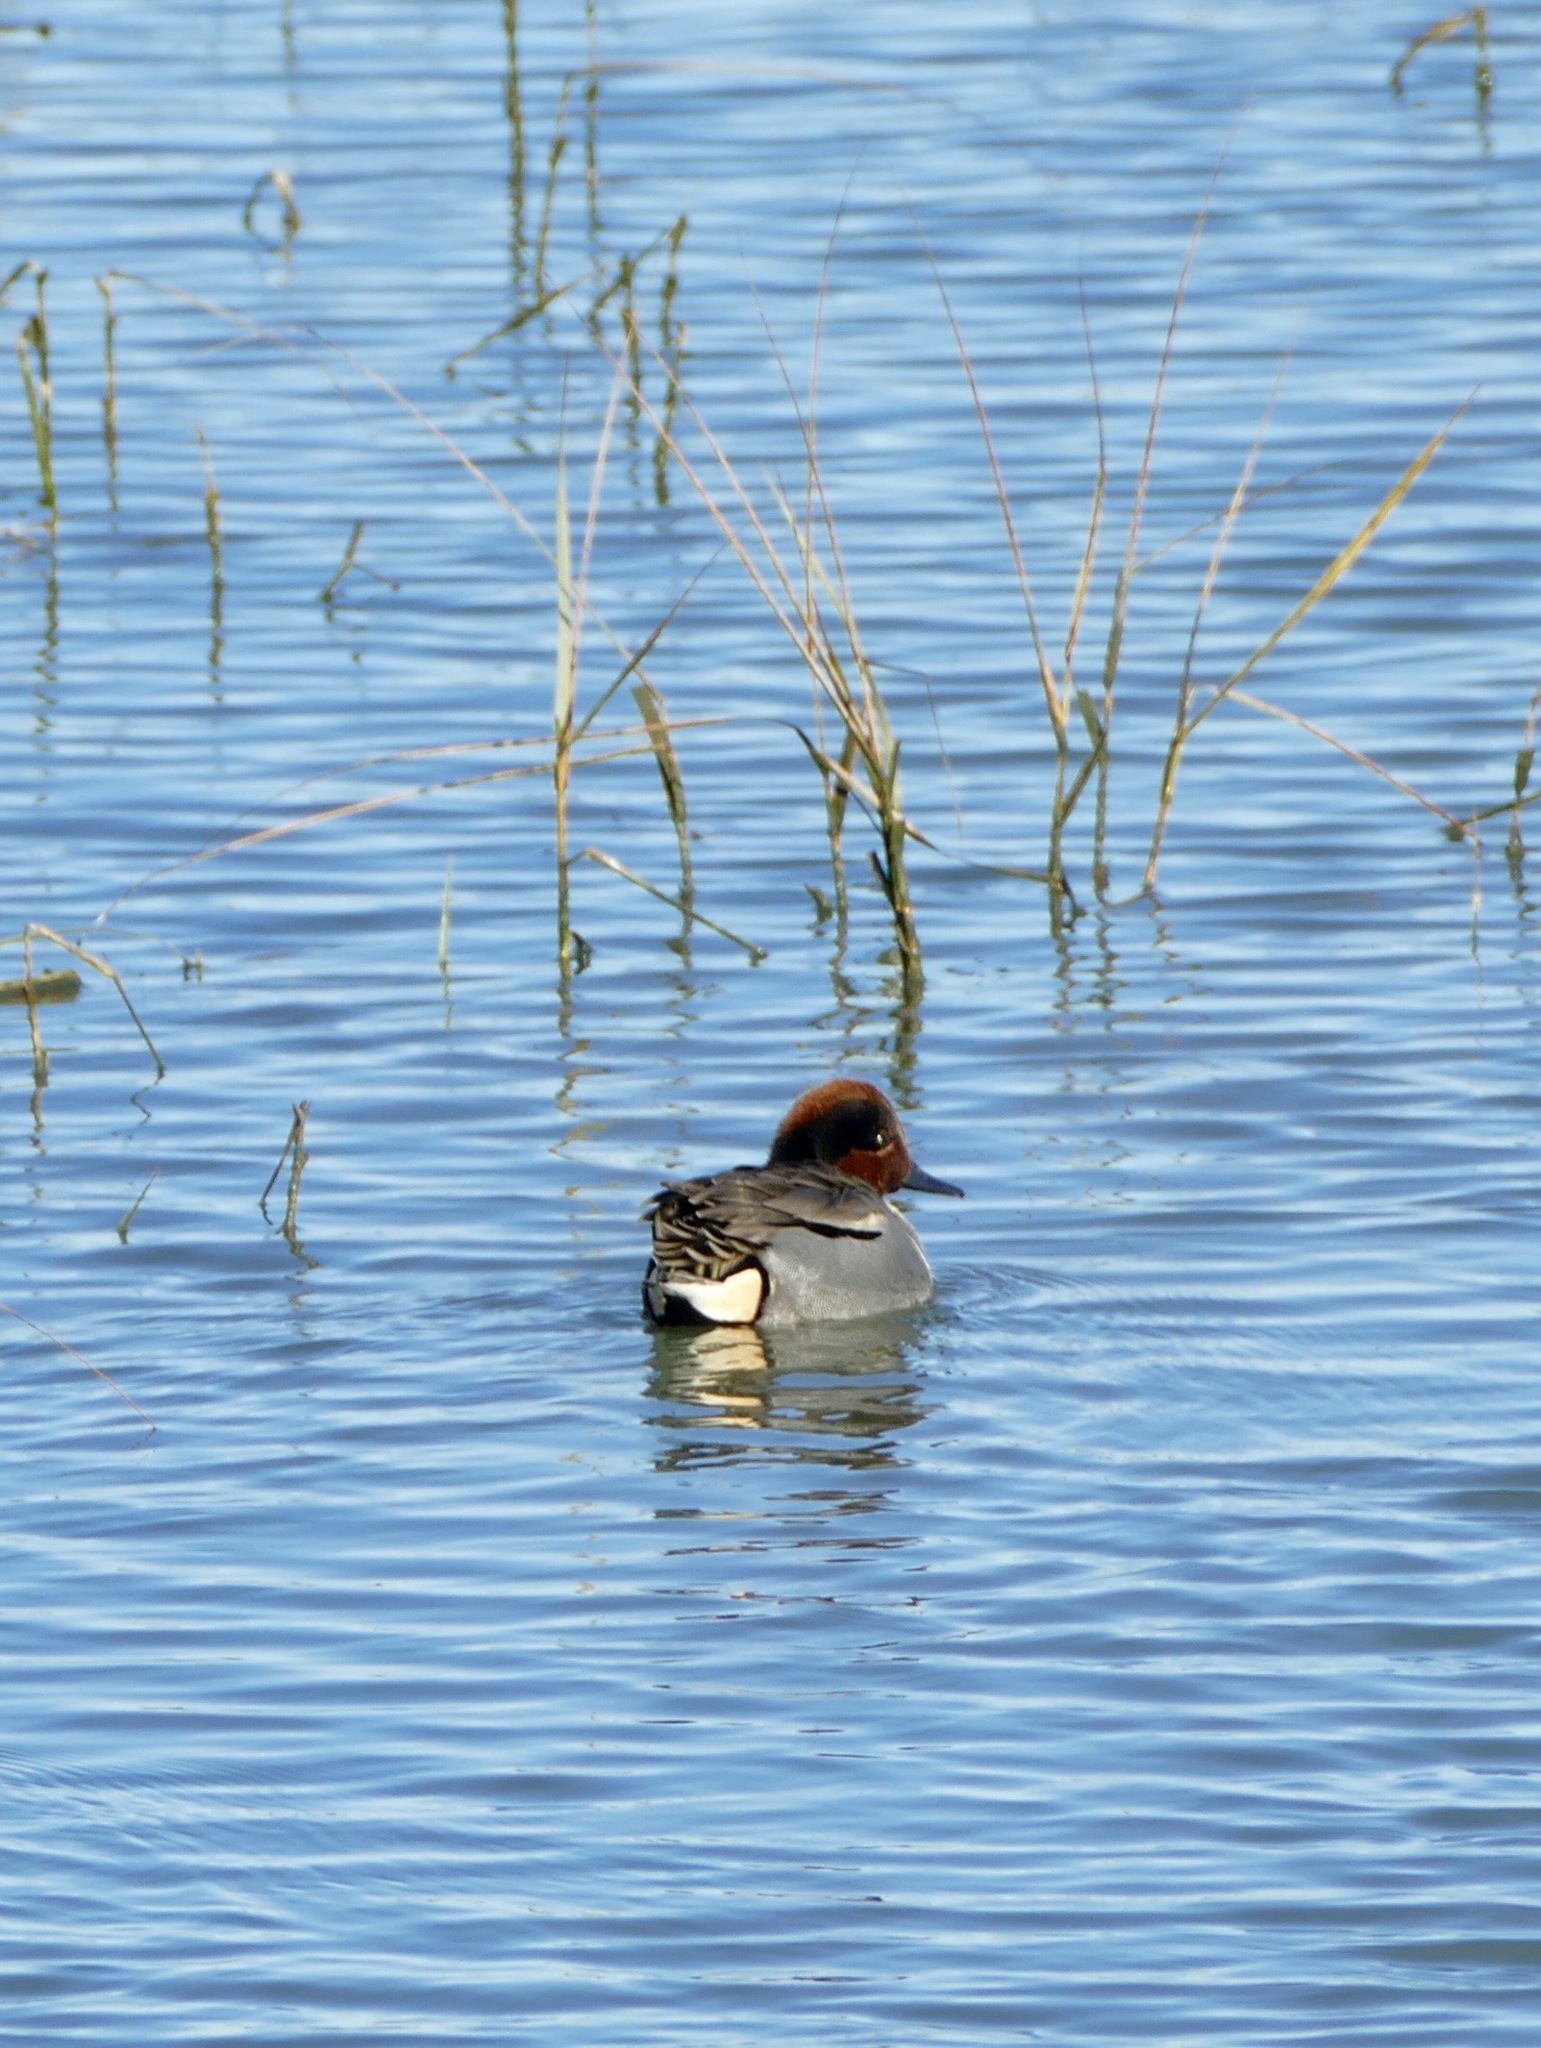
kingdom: Animalia
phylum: Chordata
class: Aves
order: Anseriformes
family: Anatidae
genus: Anas
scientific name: Anas carolinensis
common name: Green-winged teal
